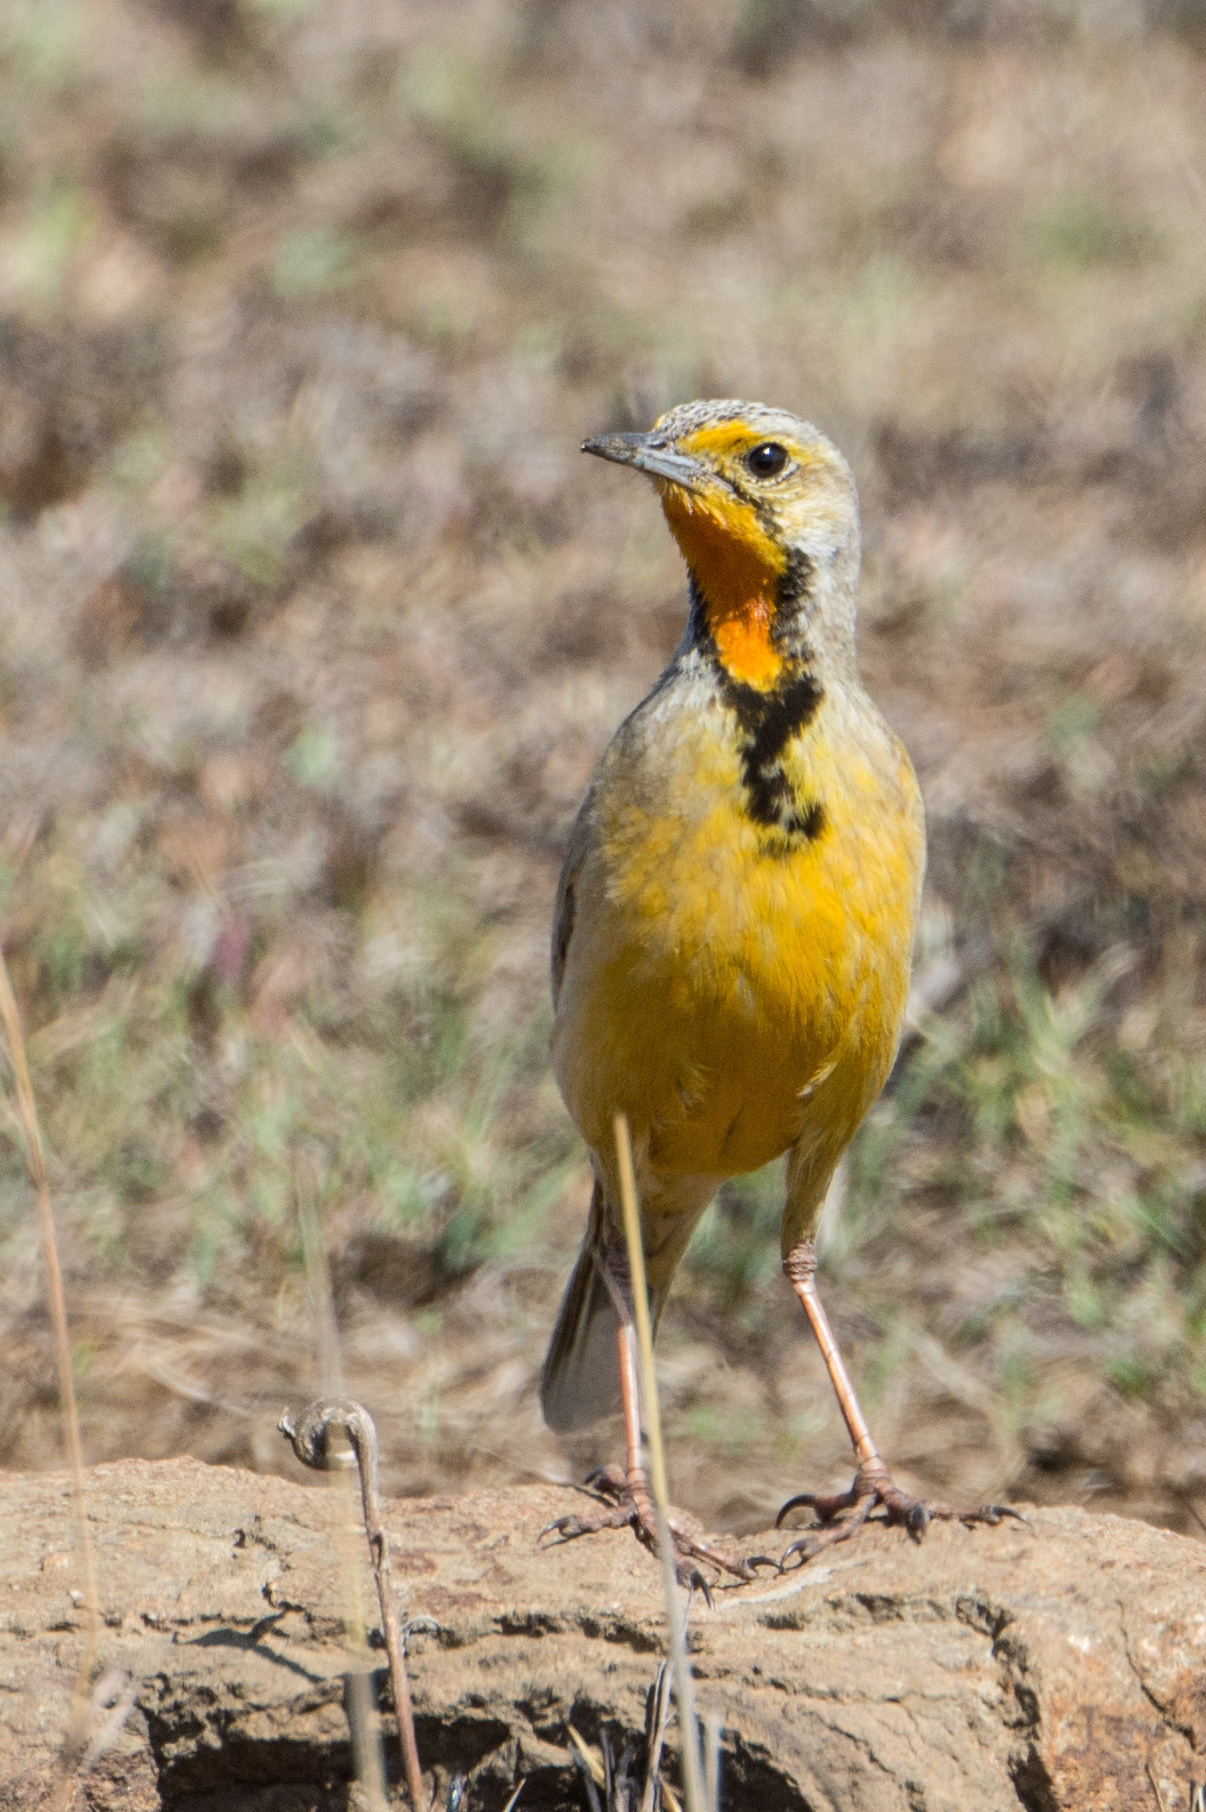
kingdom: Animalia
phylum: Chordata
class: Aves
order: Passeriformes
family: Motacillidae
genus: Macronyx
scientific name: Macronyx capensis
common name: Cape longclaw
